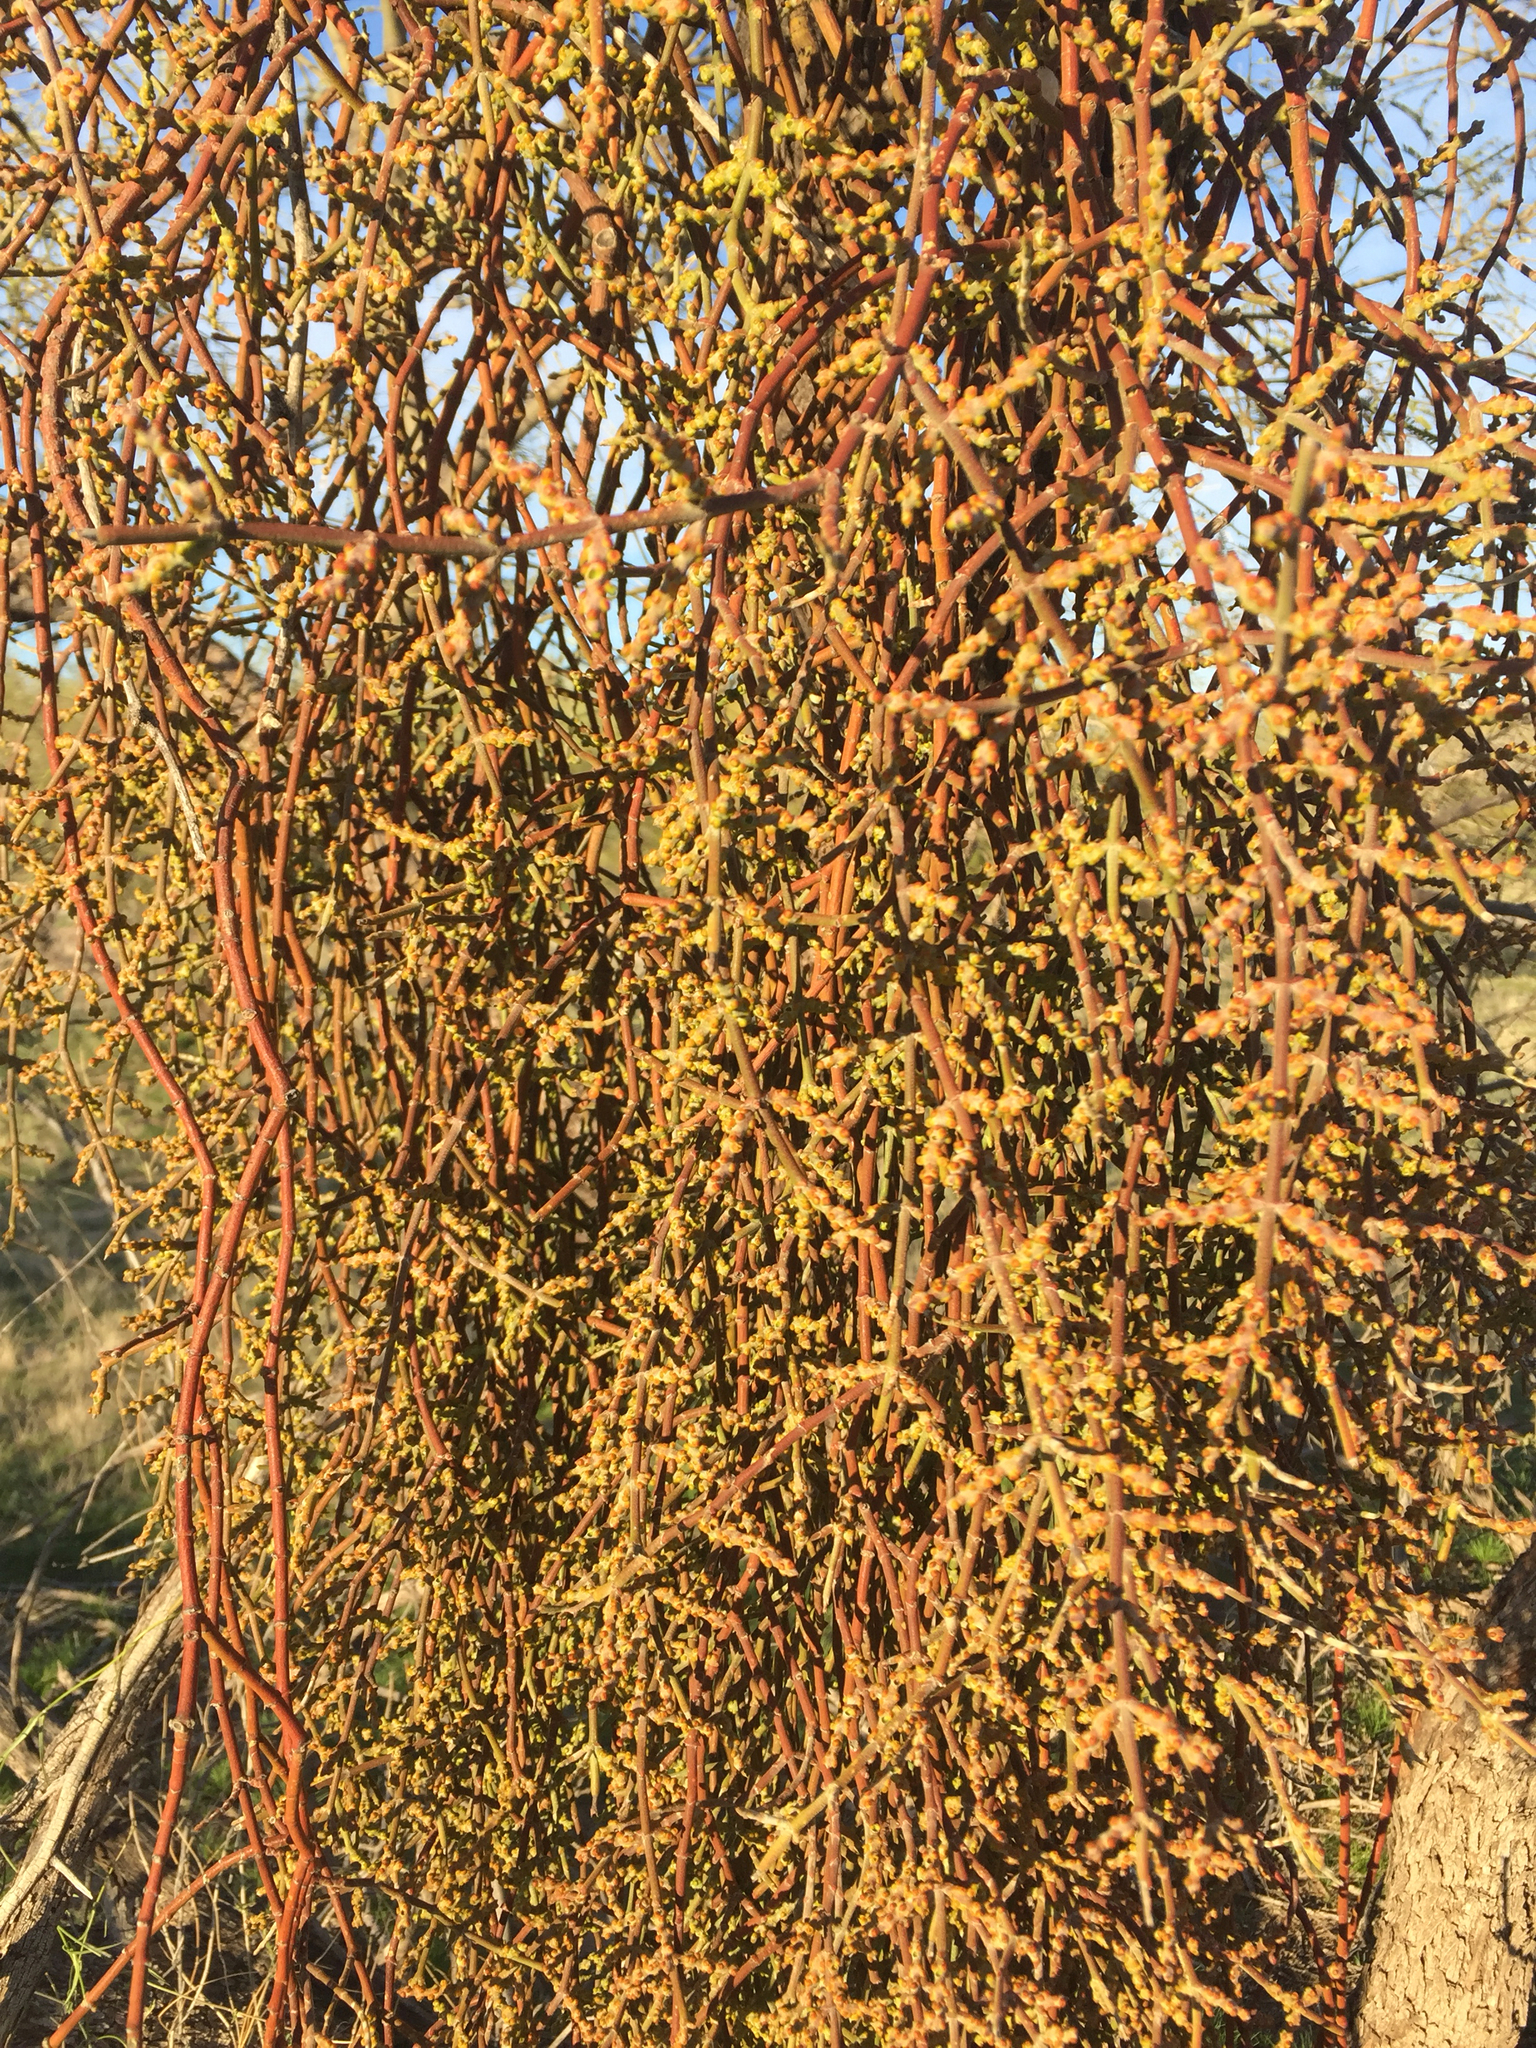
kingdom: Plantae
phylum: Tracheophyta
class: Magnoliopsida
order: Santalales
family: Viscaceae
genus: Phoradendron
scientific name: Phoradendron californicum
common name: Acacia mistletoe
